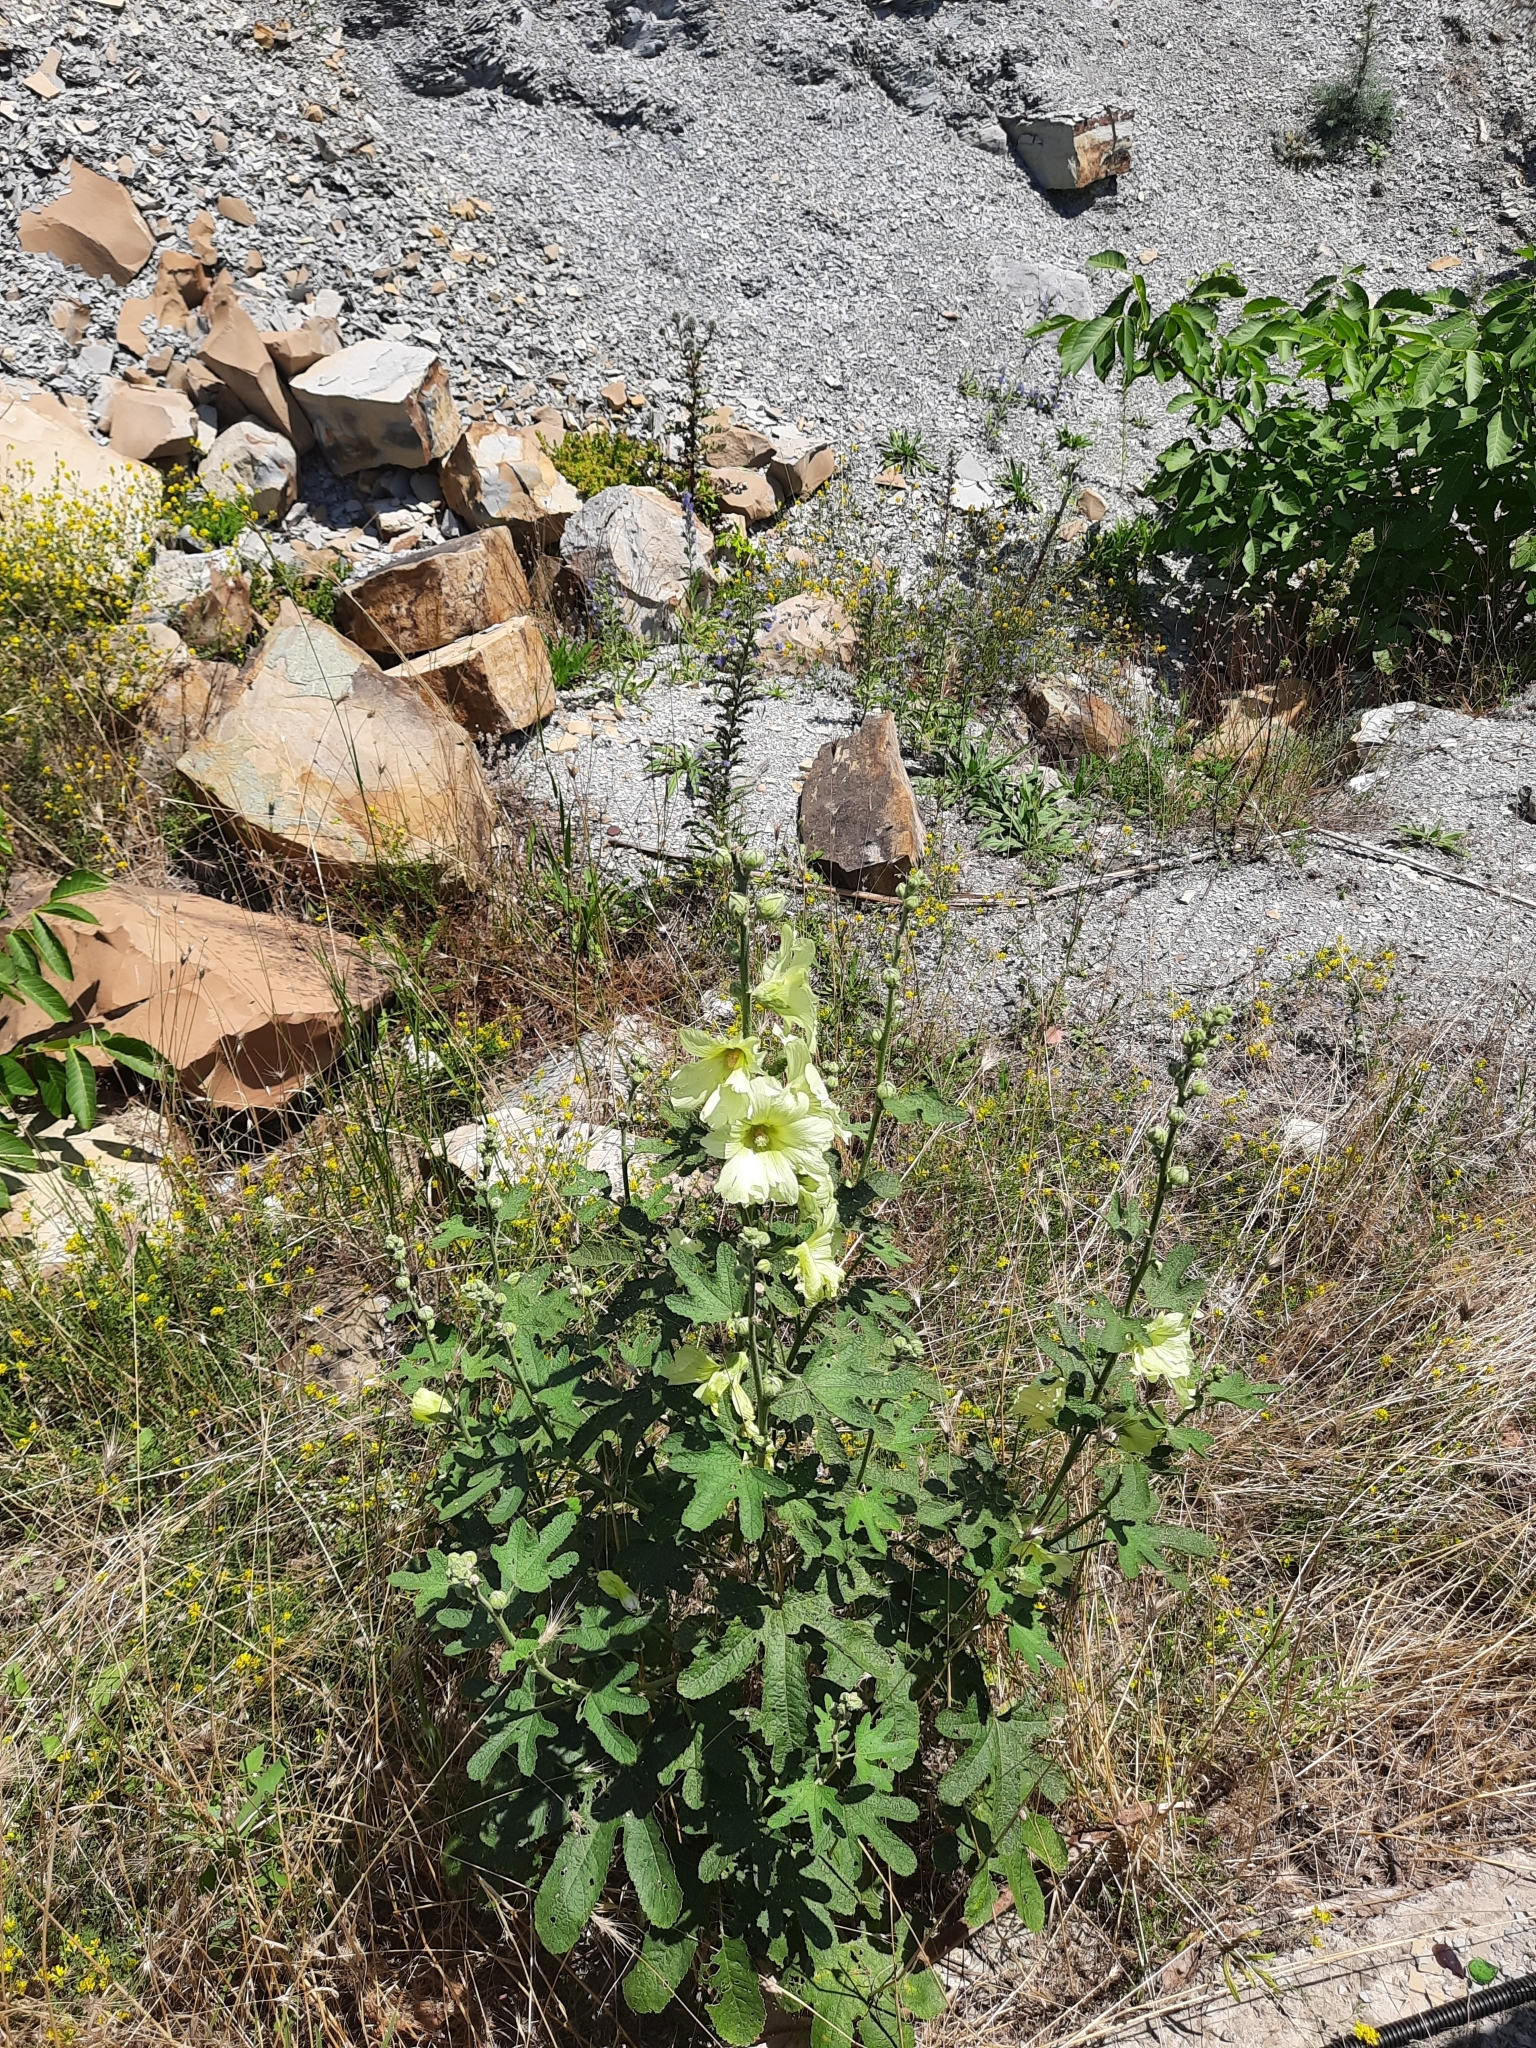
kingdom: Plantae
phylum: Tracheophyta
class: Magnoliopsida
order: Malvales
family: Malvaceae
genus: Alcea
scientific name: Alcea rugosa
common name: Russian hollyhock
